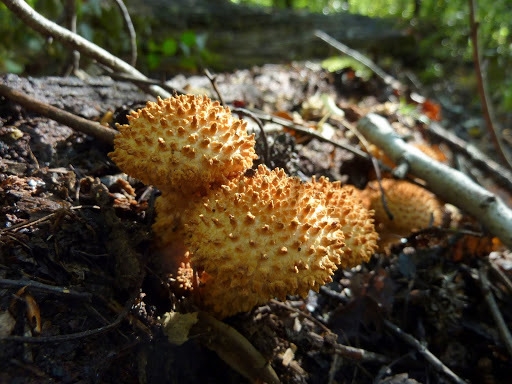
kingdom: Fungi
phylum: Basidiomycota
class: Agaricomycetes
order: Agaricales
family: Strophariaceae
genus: Pholiota
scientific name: Pholiota squarrosa
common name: Shaggy pholiota
